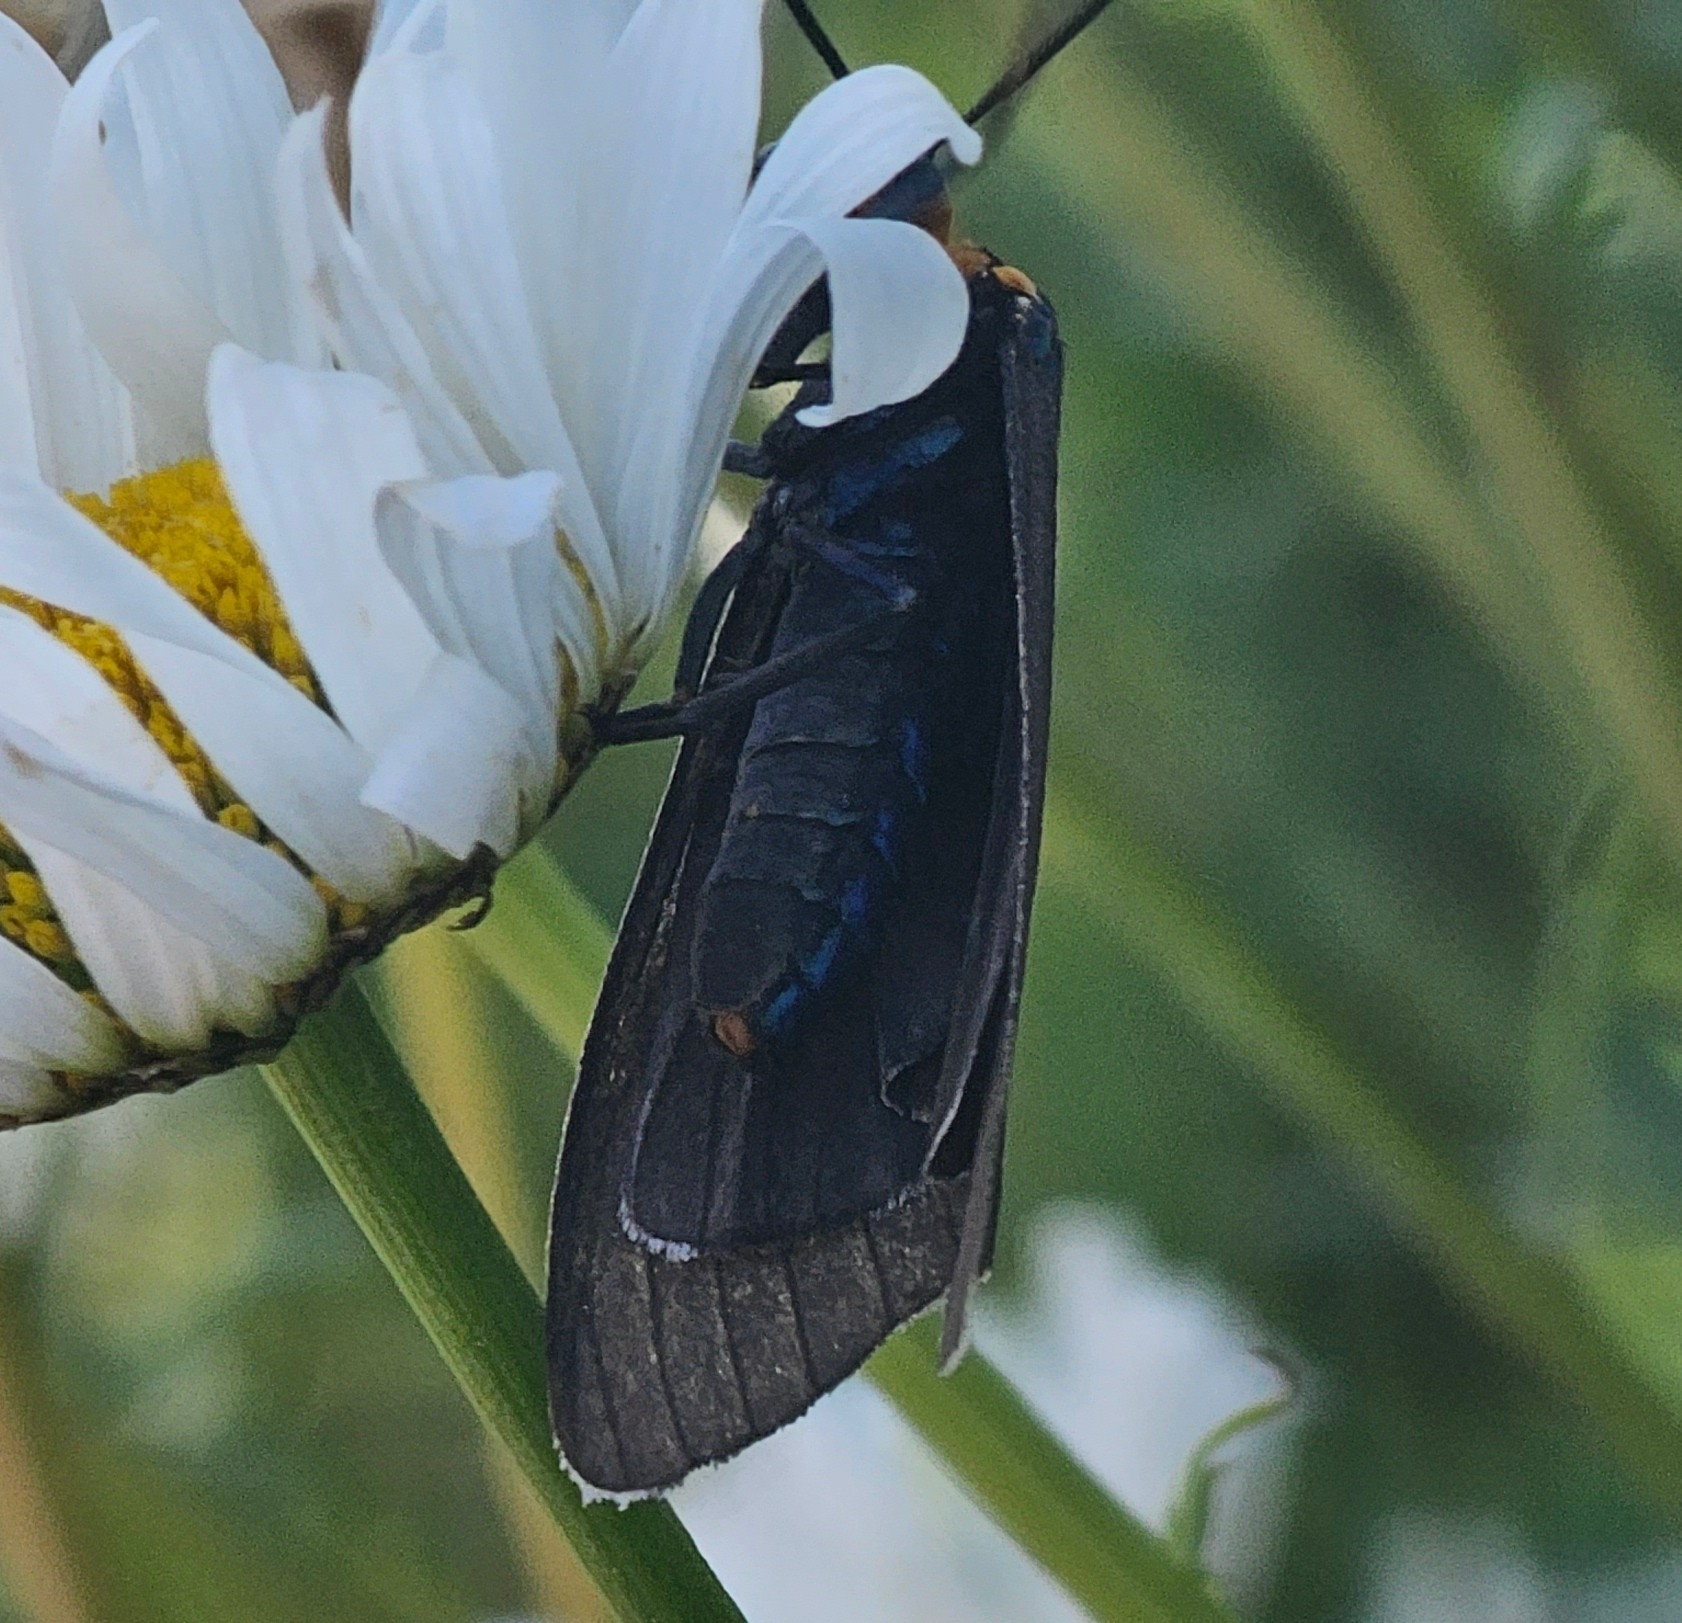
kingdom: Animalia
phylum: Arthropoda
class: Insecta
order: Lepidoptera
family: Erebidae
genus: Ctenucha
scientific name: Ctenucha virginica
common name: Virginia ctenucha moth
